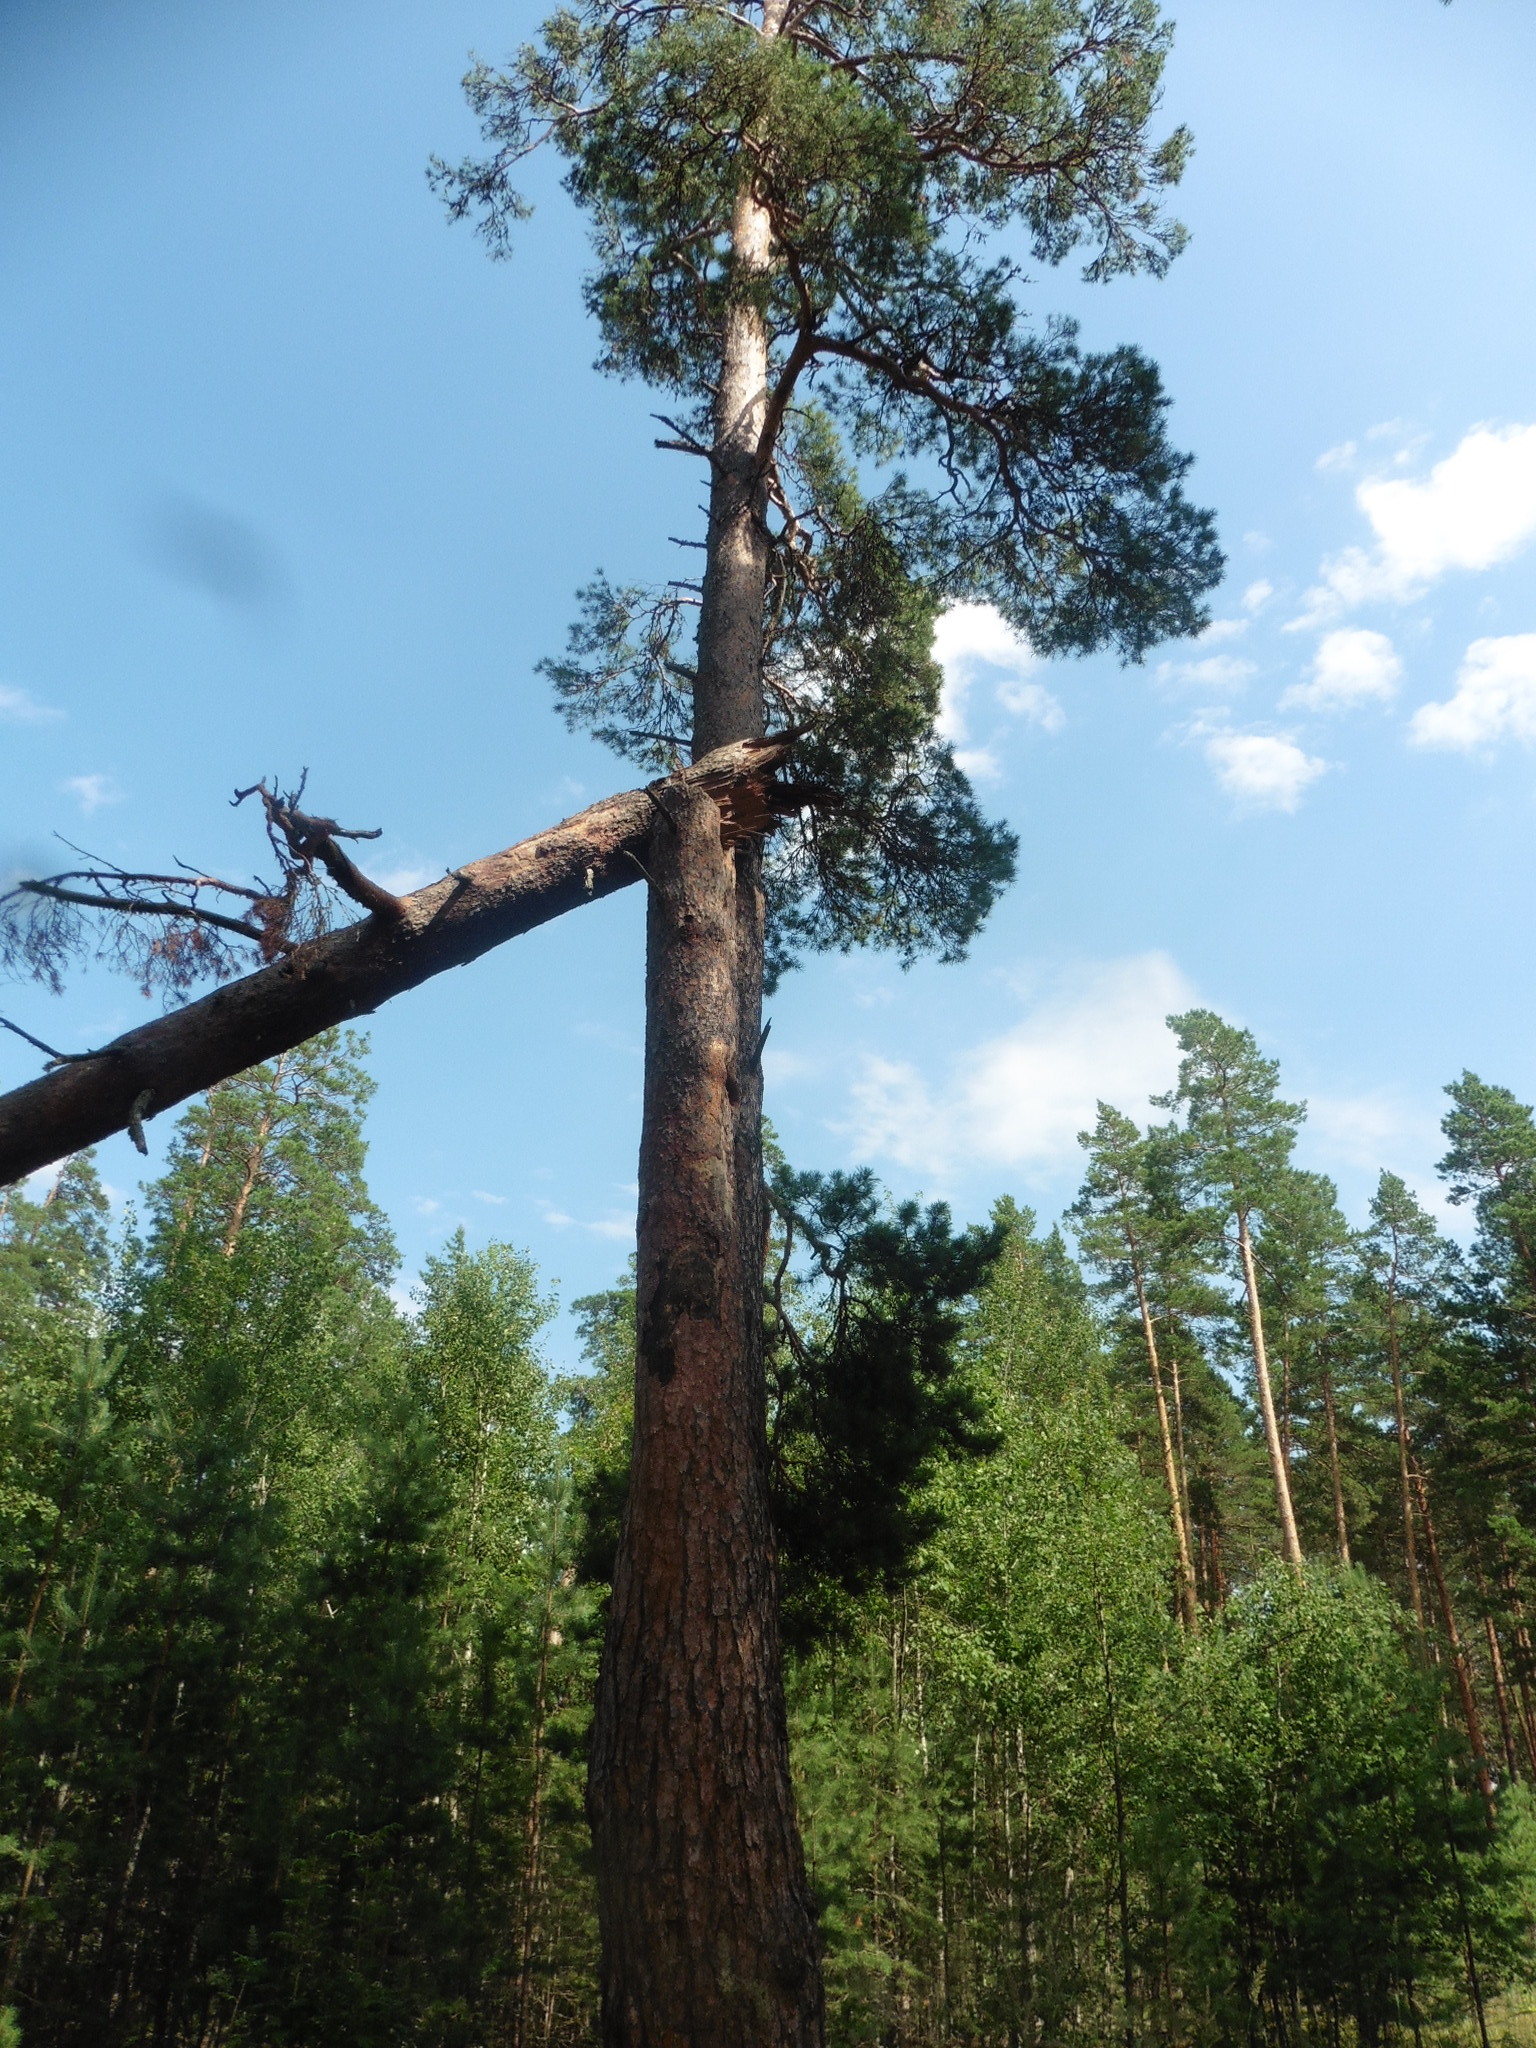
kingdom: Plantae
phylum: Tracheophyta
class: Pinopsida
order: Pinales
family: Pinaceae
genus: Pinus
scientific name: Pinus sylvestris
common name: Scots pine
